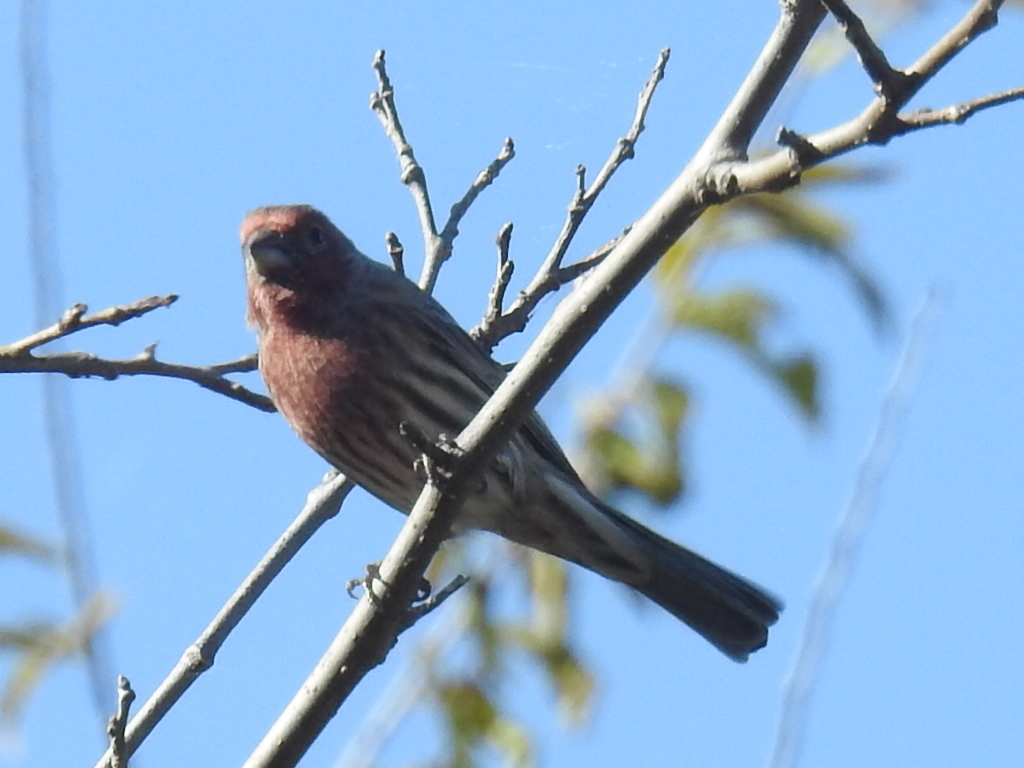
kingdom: Animalia
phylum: Chordata
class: Aves
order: Passeriformes
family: Fringillidae
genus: Haemorhous
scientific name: Haemorhous mexicanus
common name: House finch
